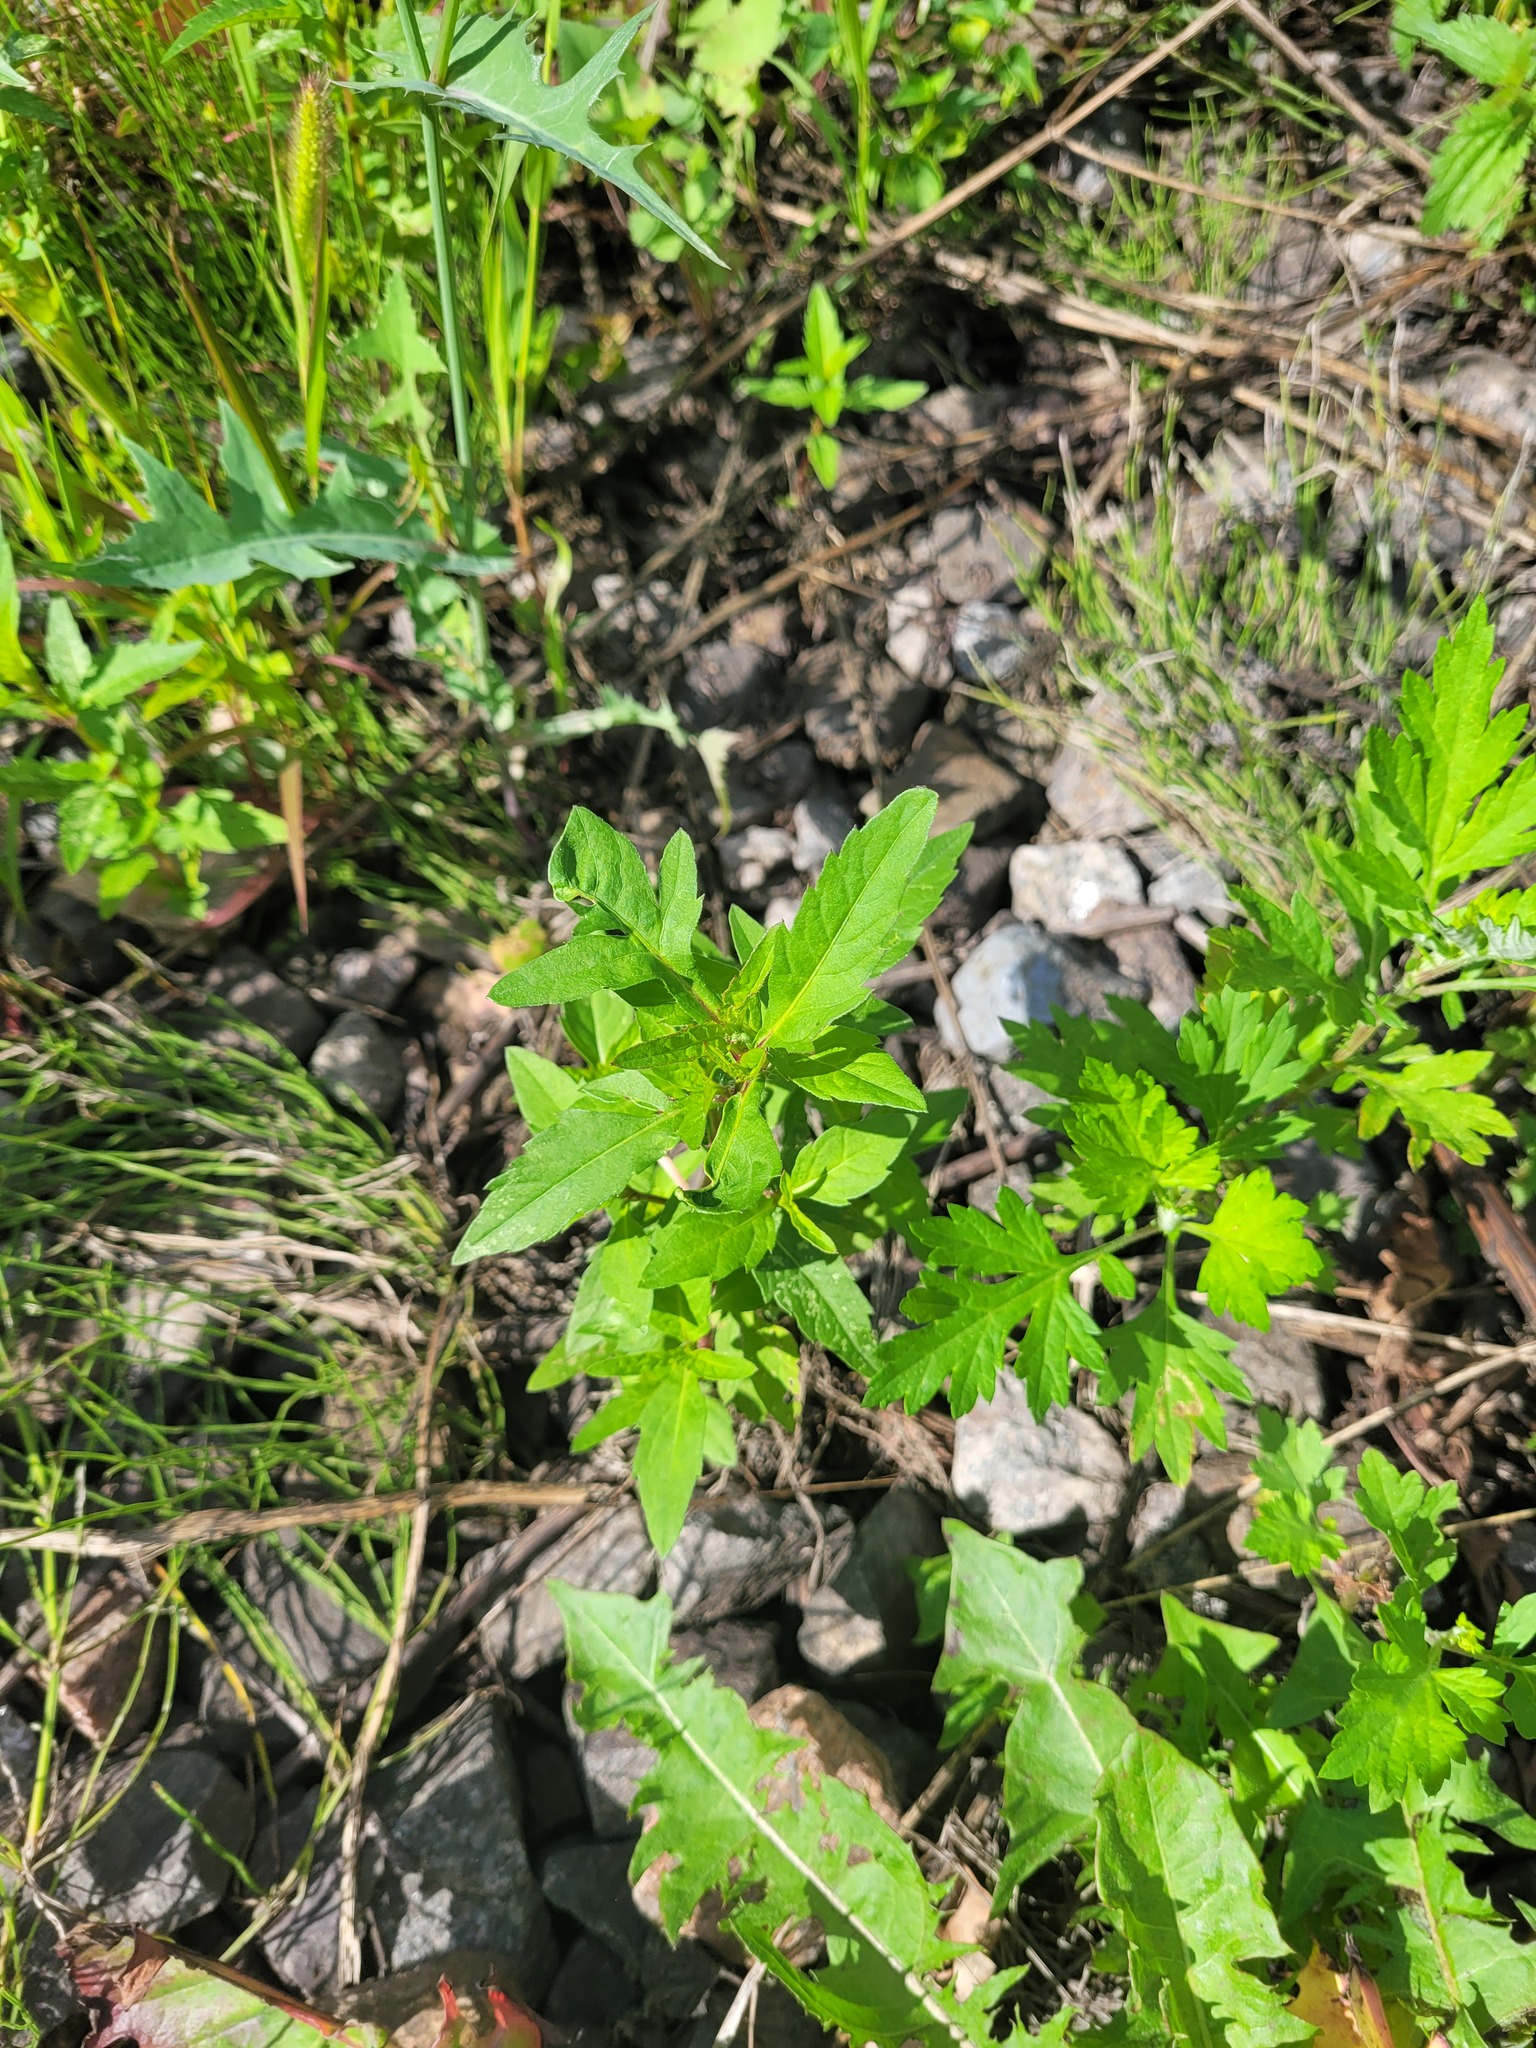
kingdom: Plantae
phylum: Tracheophyta
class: Magnoliopsida
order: Asterales
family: Asteraceae
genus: Bidens
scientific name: Bidens tripartita
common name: Trifid bur-marigold
